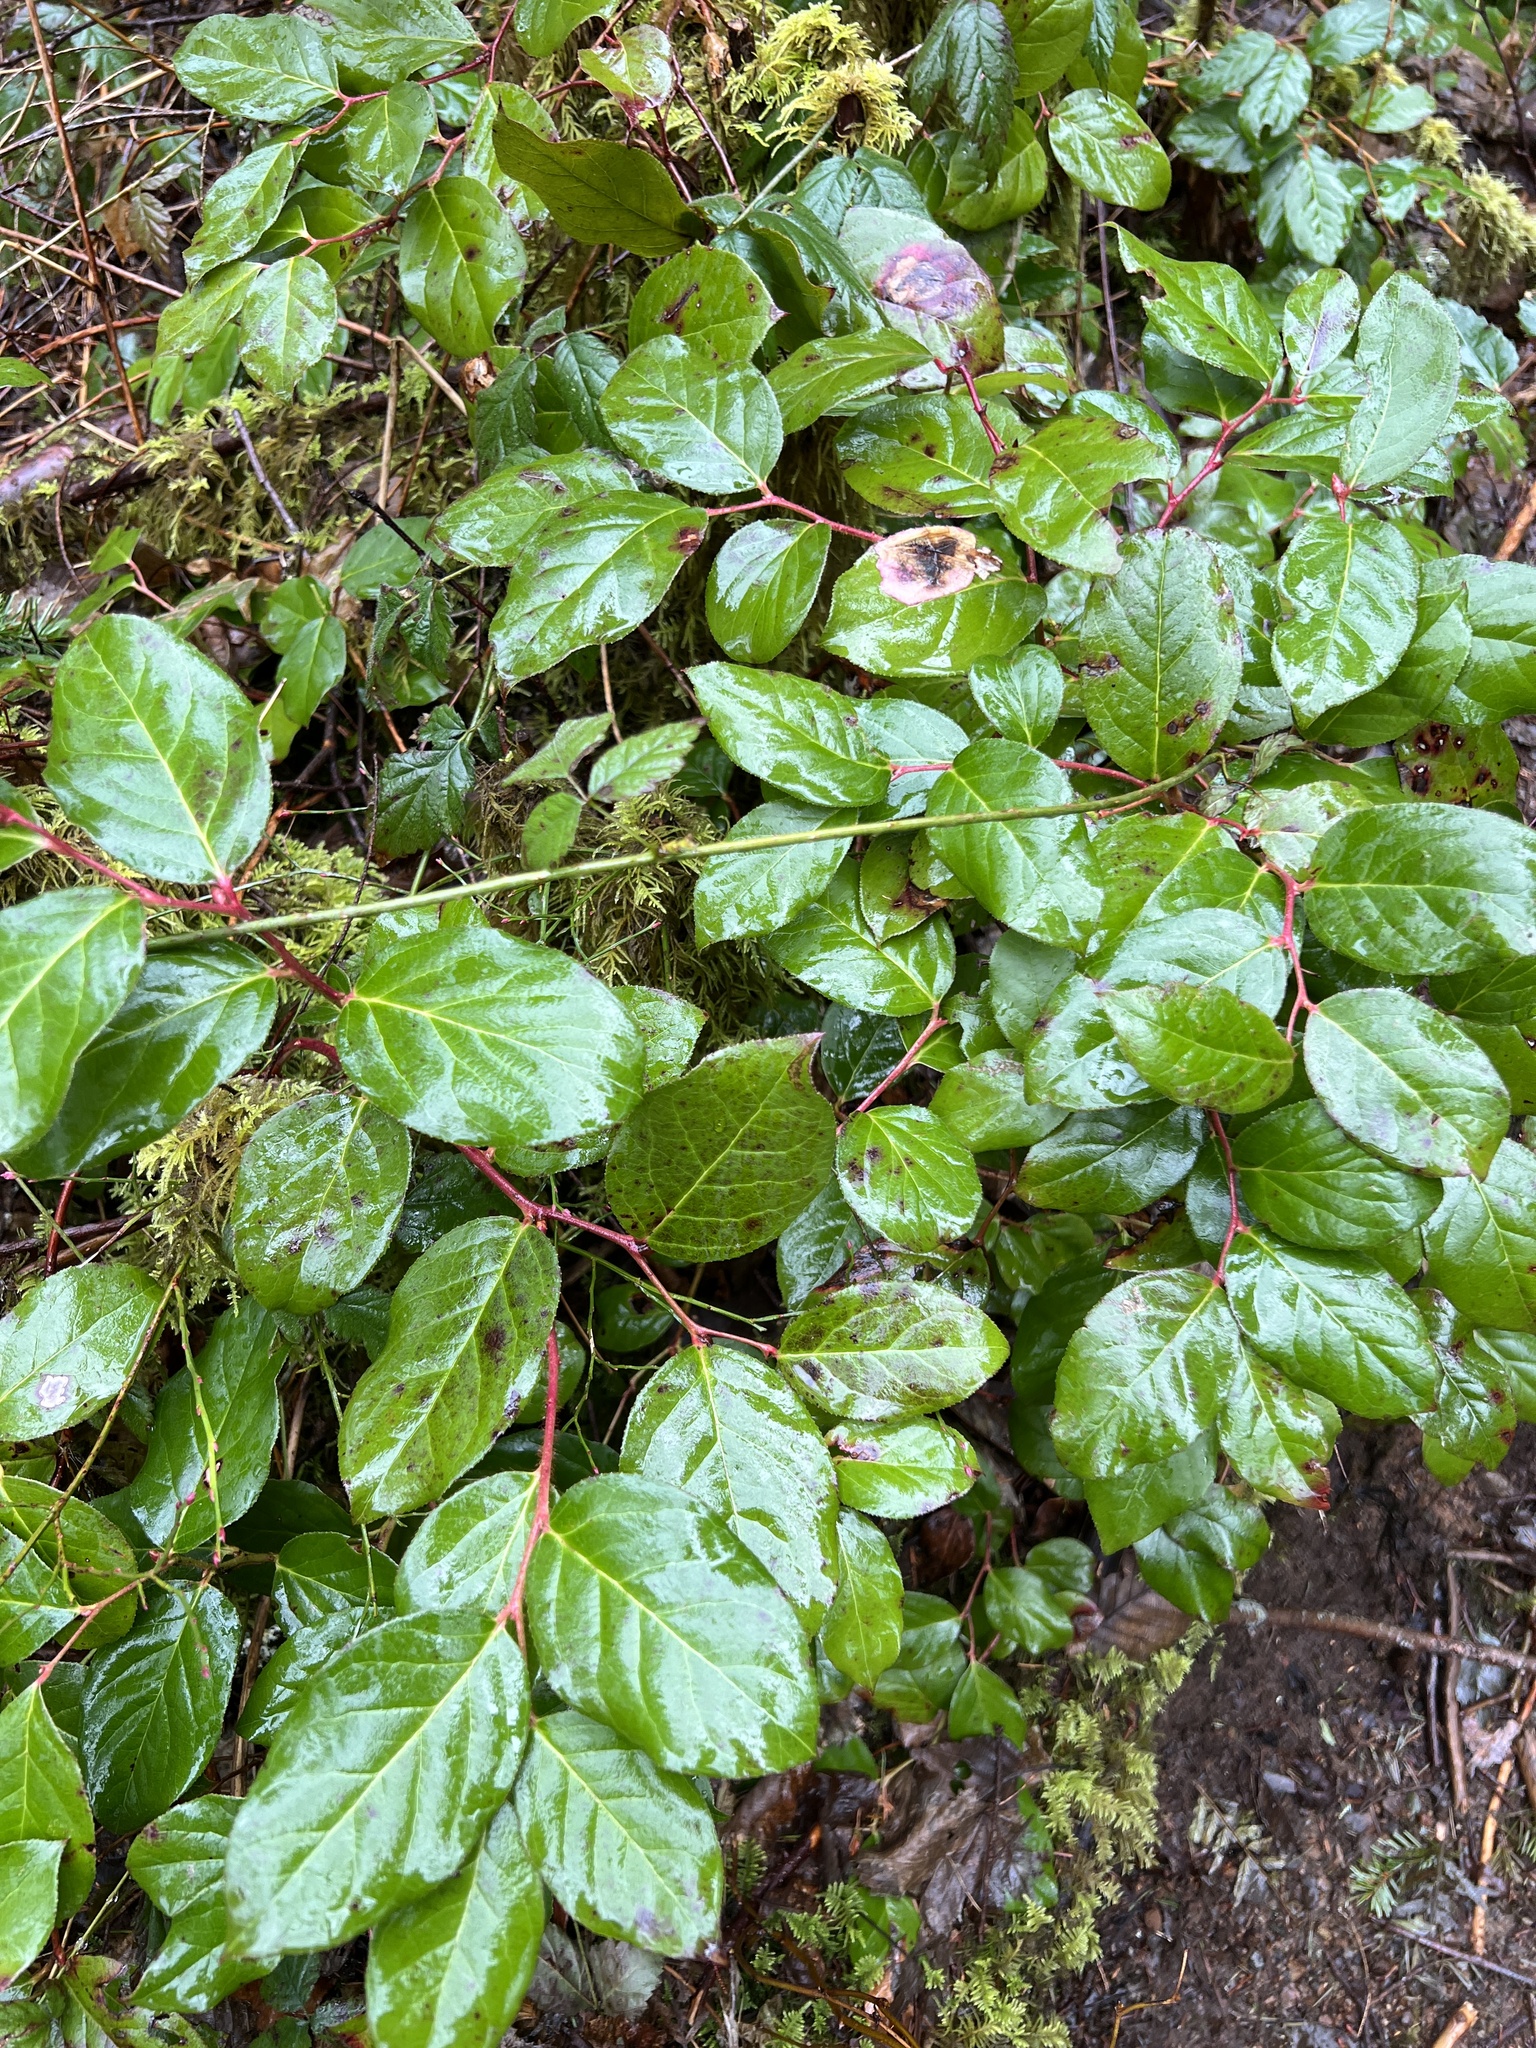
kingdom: Plantae
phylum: Tracheophyta
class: Magnoliopsida
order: Ericales
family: Ericaceae
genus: Gaultheria
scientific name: Gaultheria shallon
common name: Shallon
